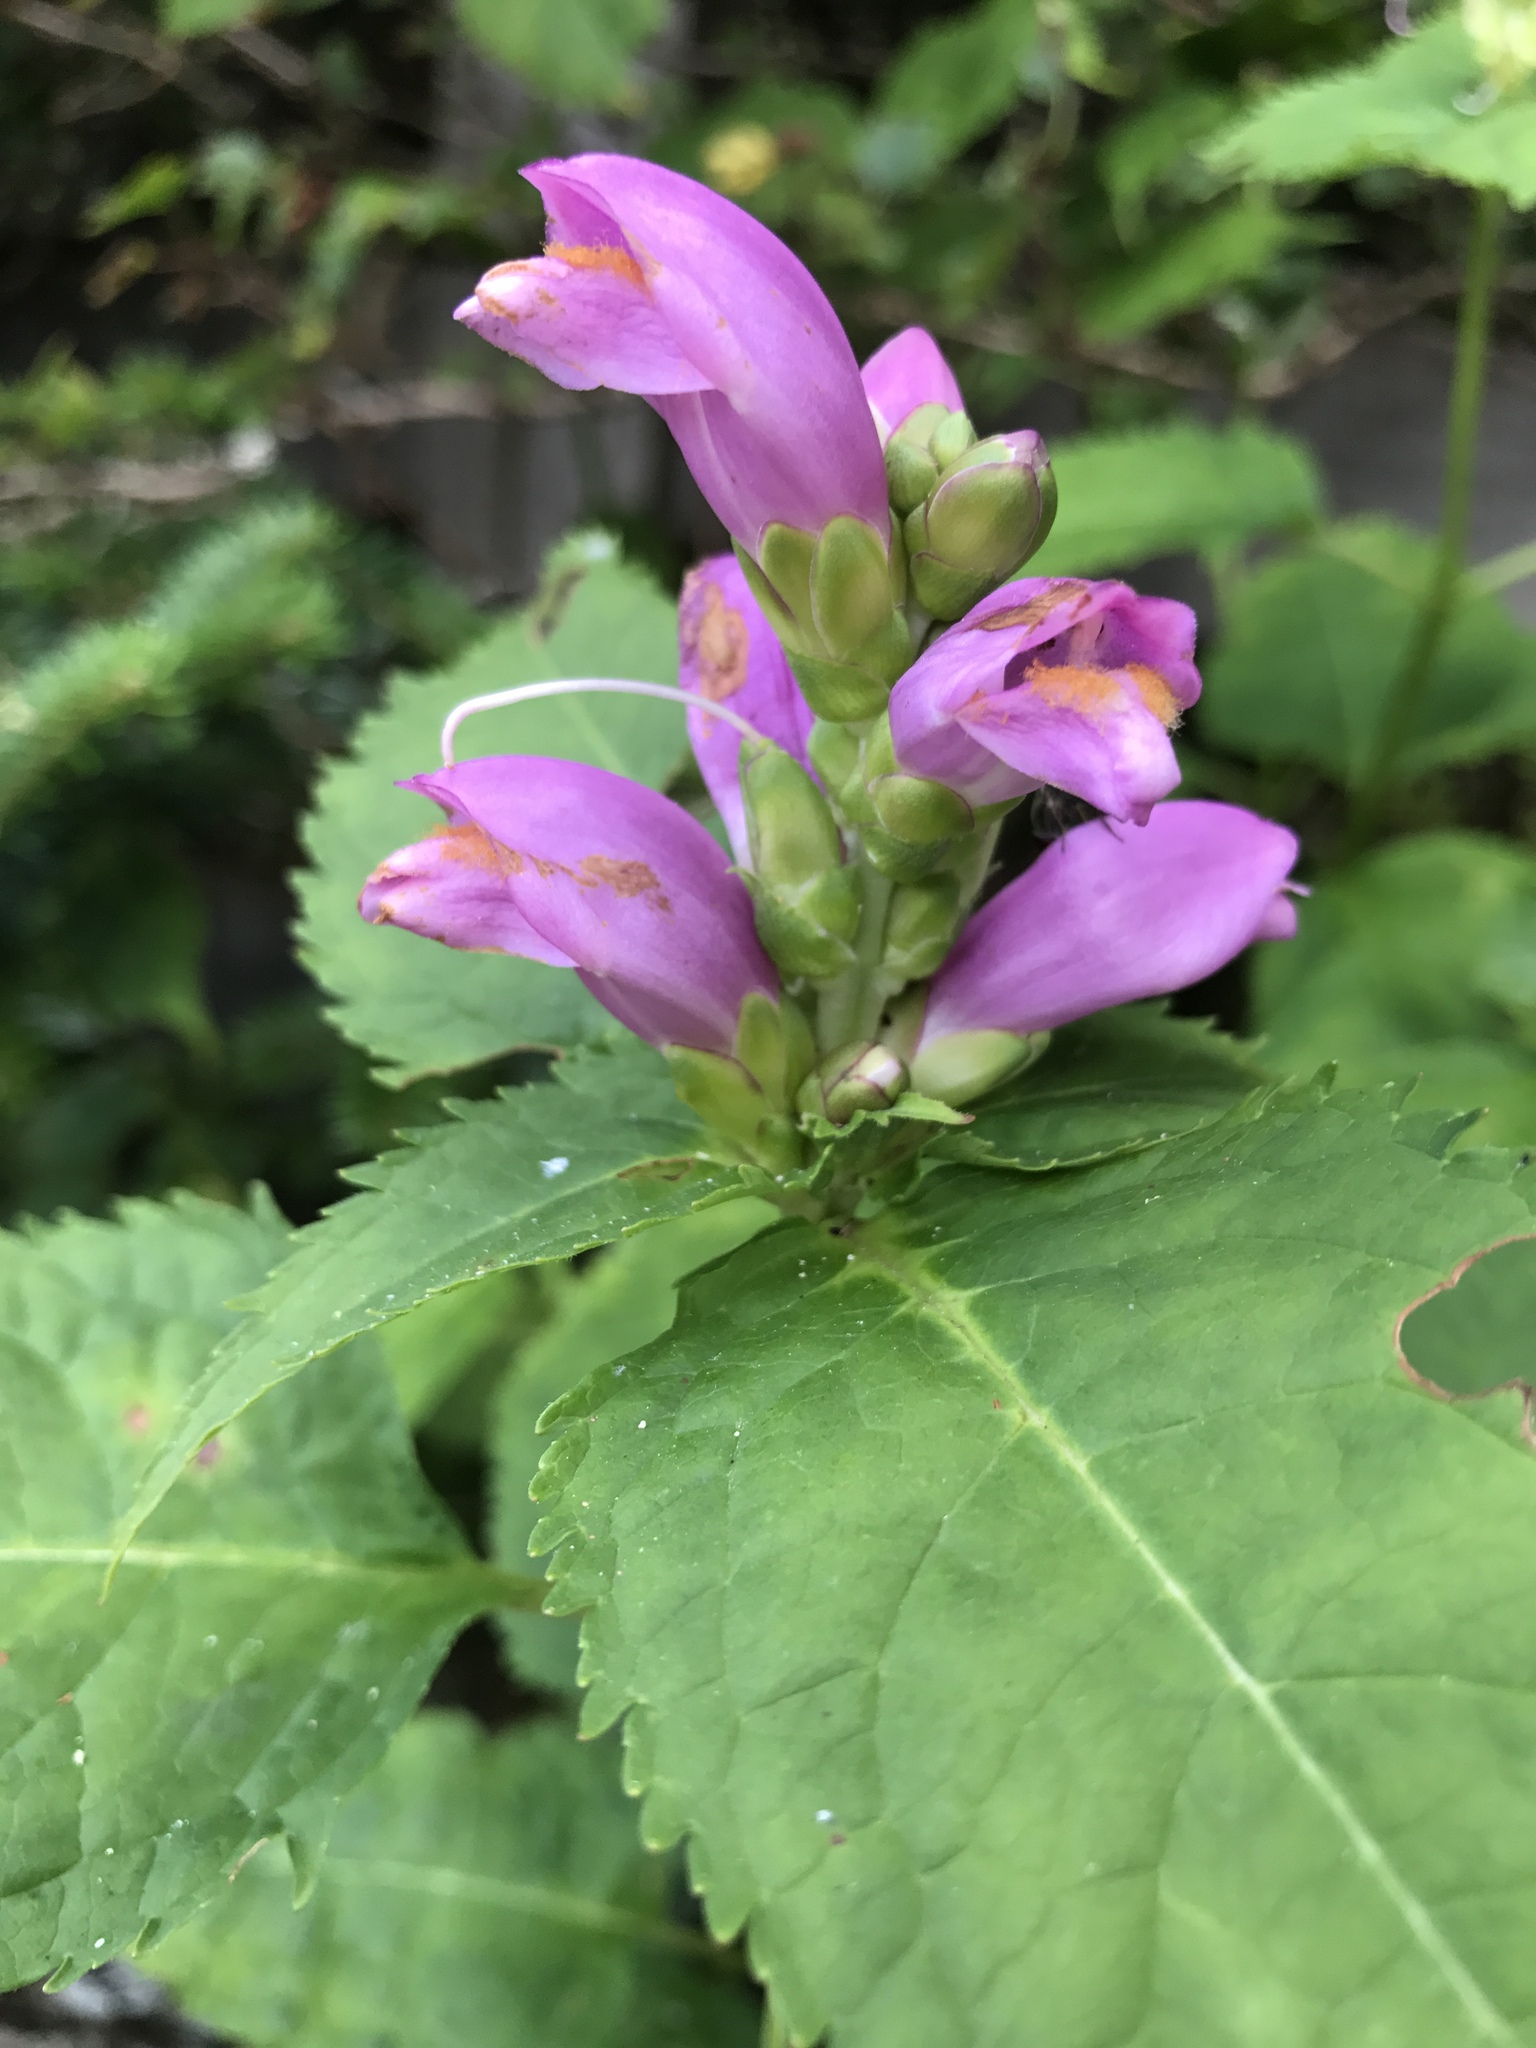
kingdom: Plantae
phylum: Tracheophyta
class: Magnoliopsida
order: Lamiales
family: Plantaginaceae
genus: Chelone
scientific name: Chelone lyonii
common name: Pink turtlehead
